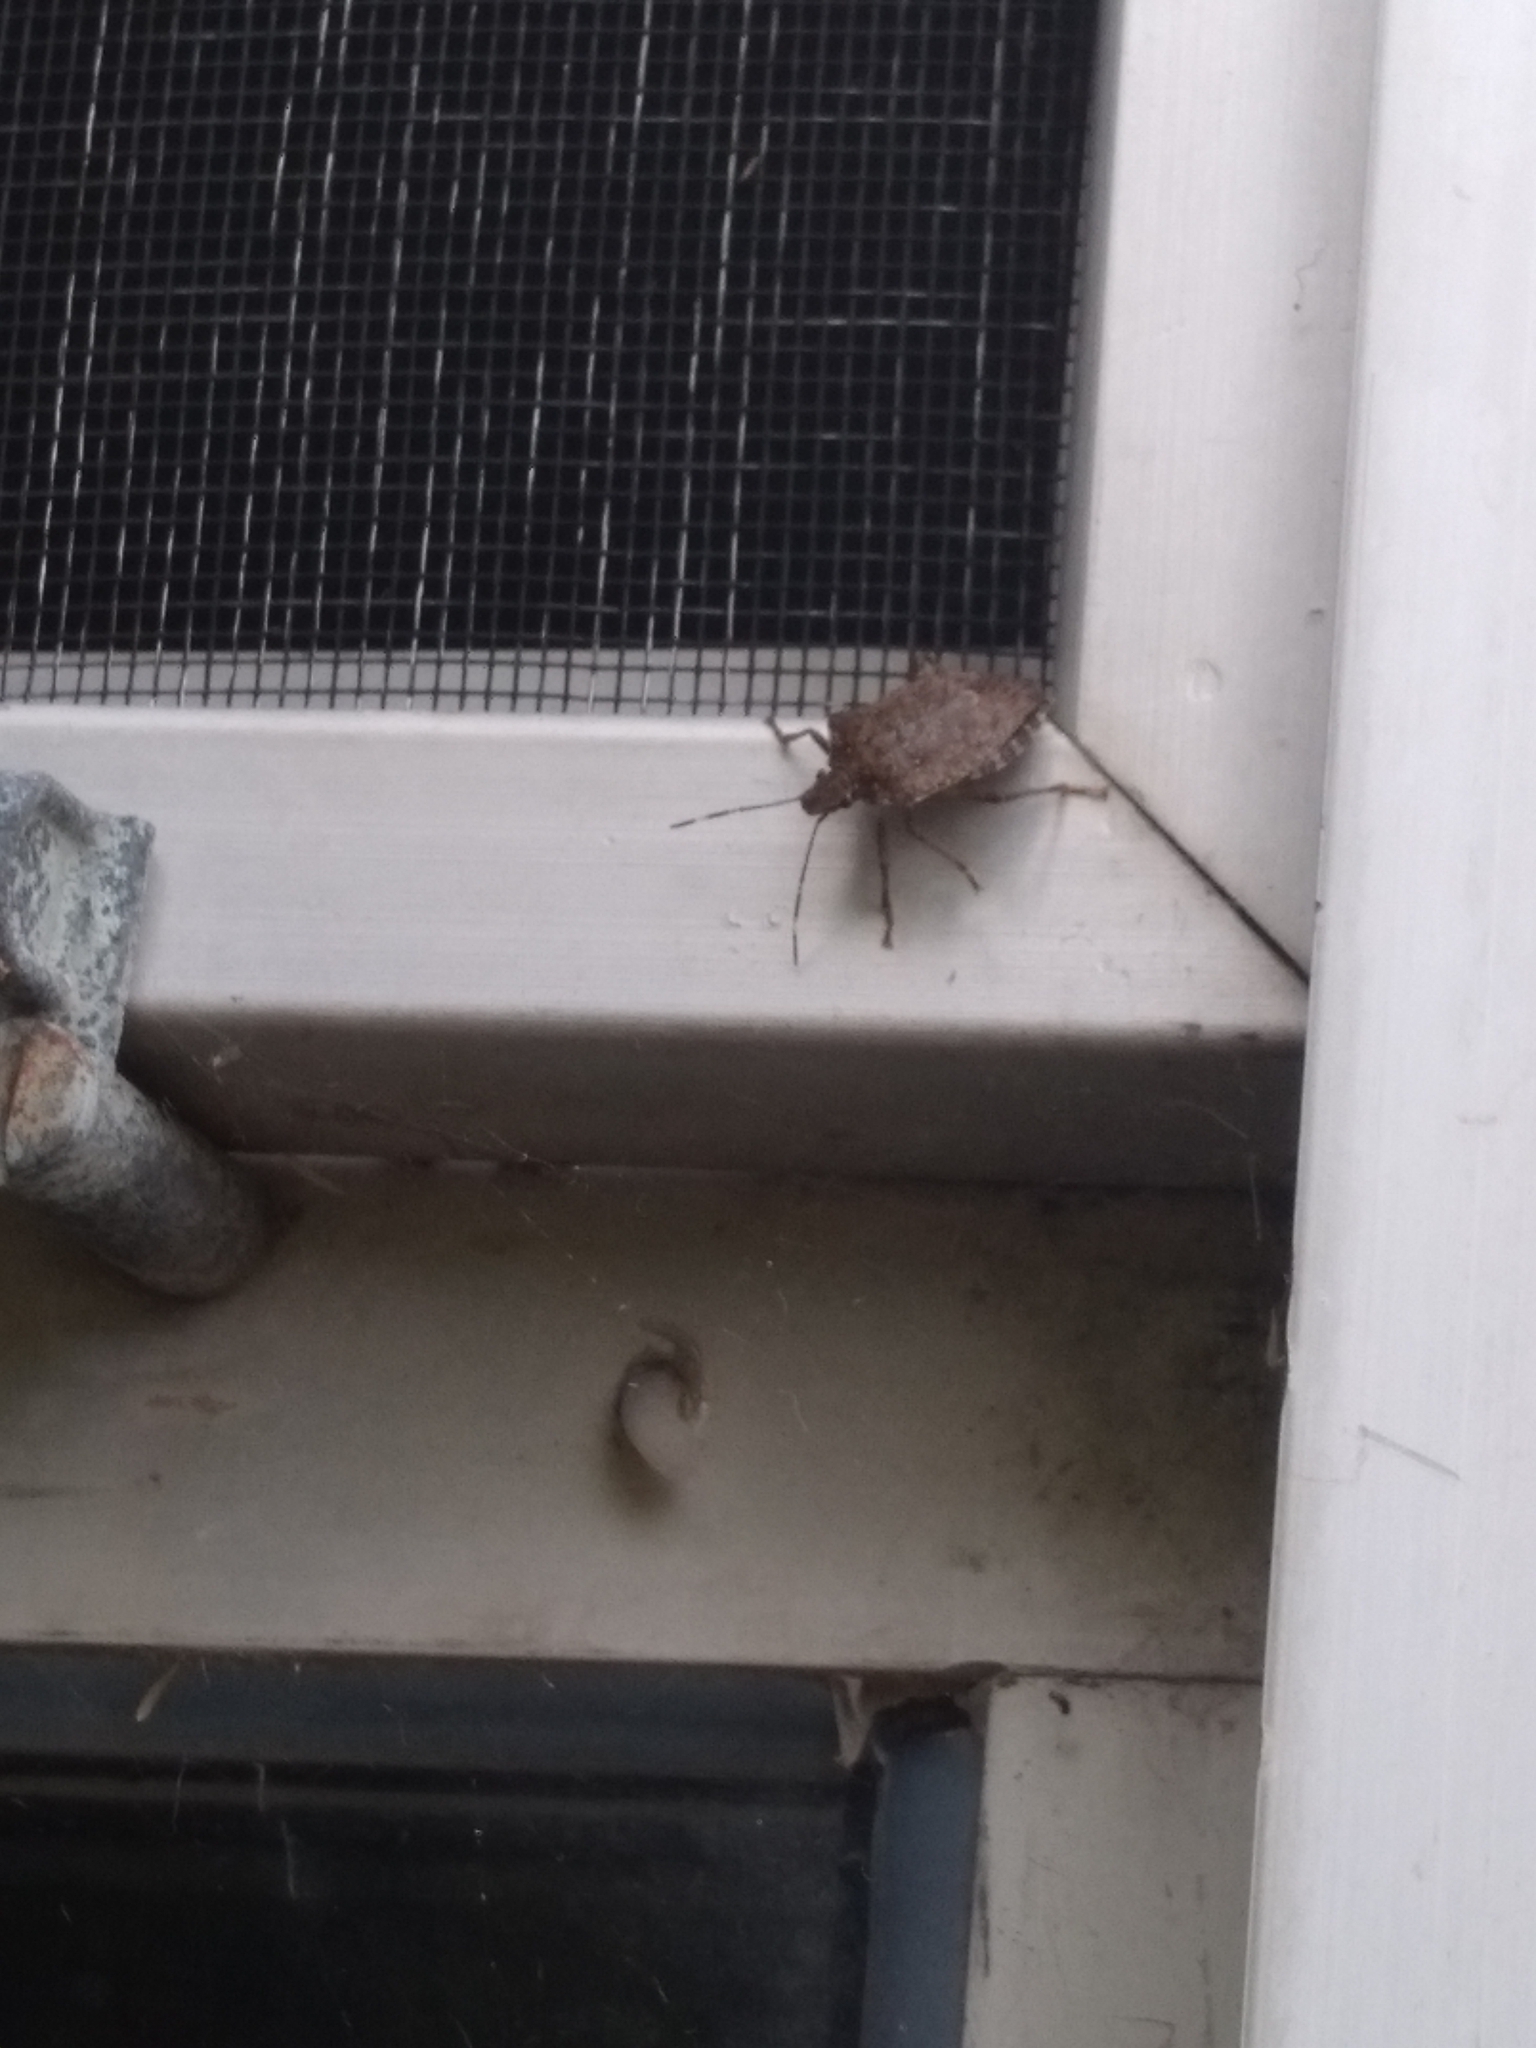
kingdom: Animalia
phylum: Arthropoda
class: Insecta
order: Hemiptera
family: Pentatomidae
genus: Halyomorpha
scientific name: Halyomorpha halys
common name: Brown marmorated stink bug
